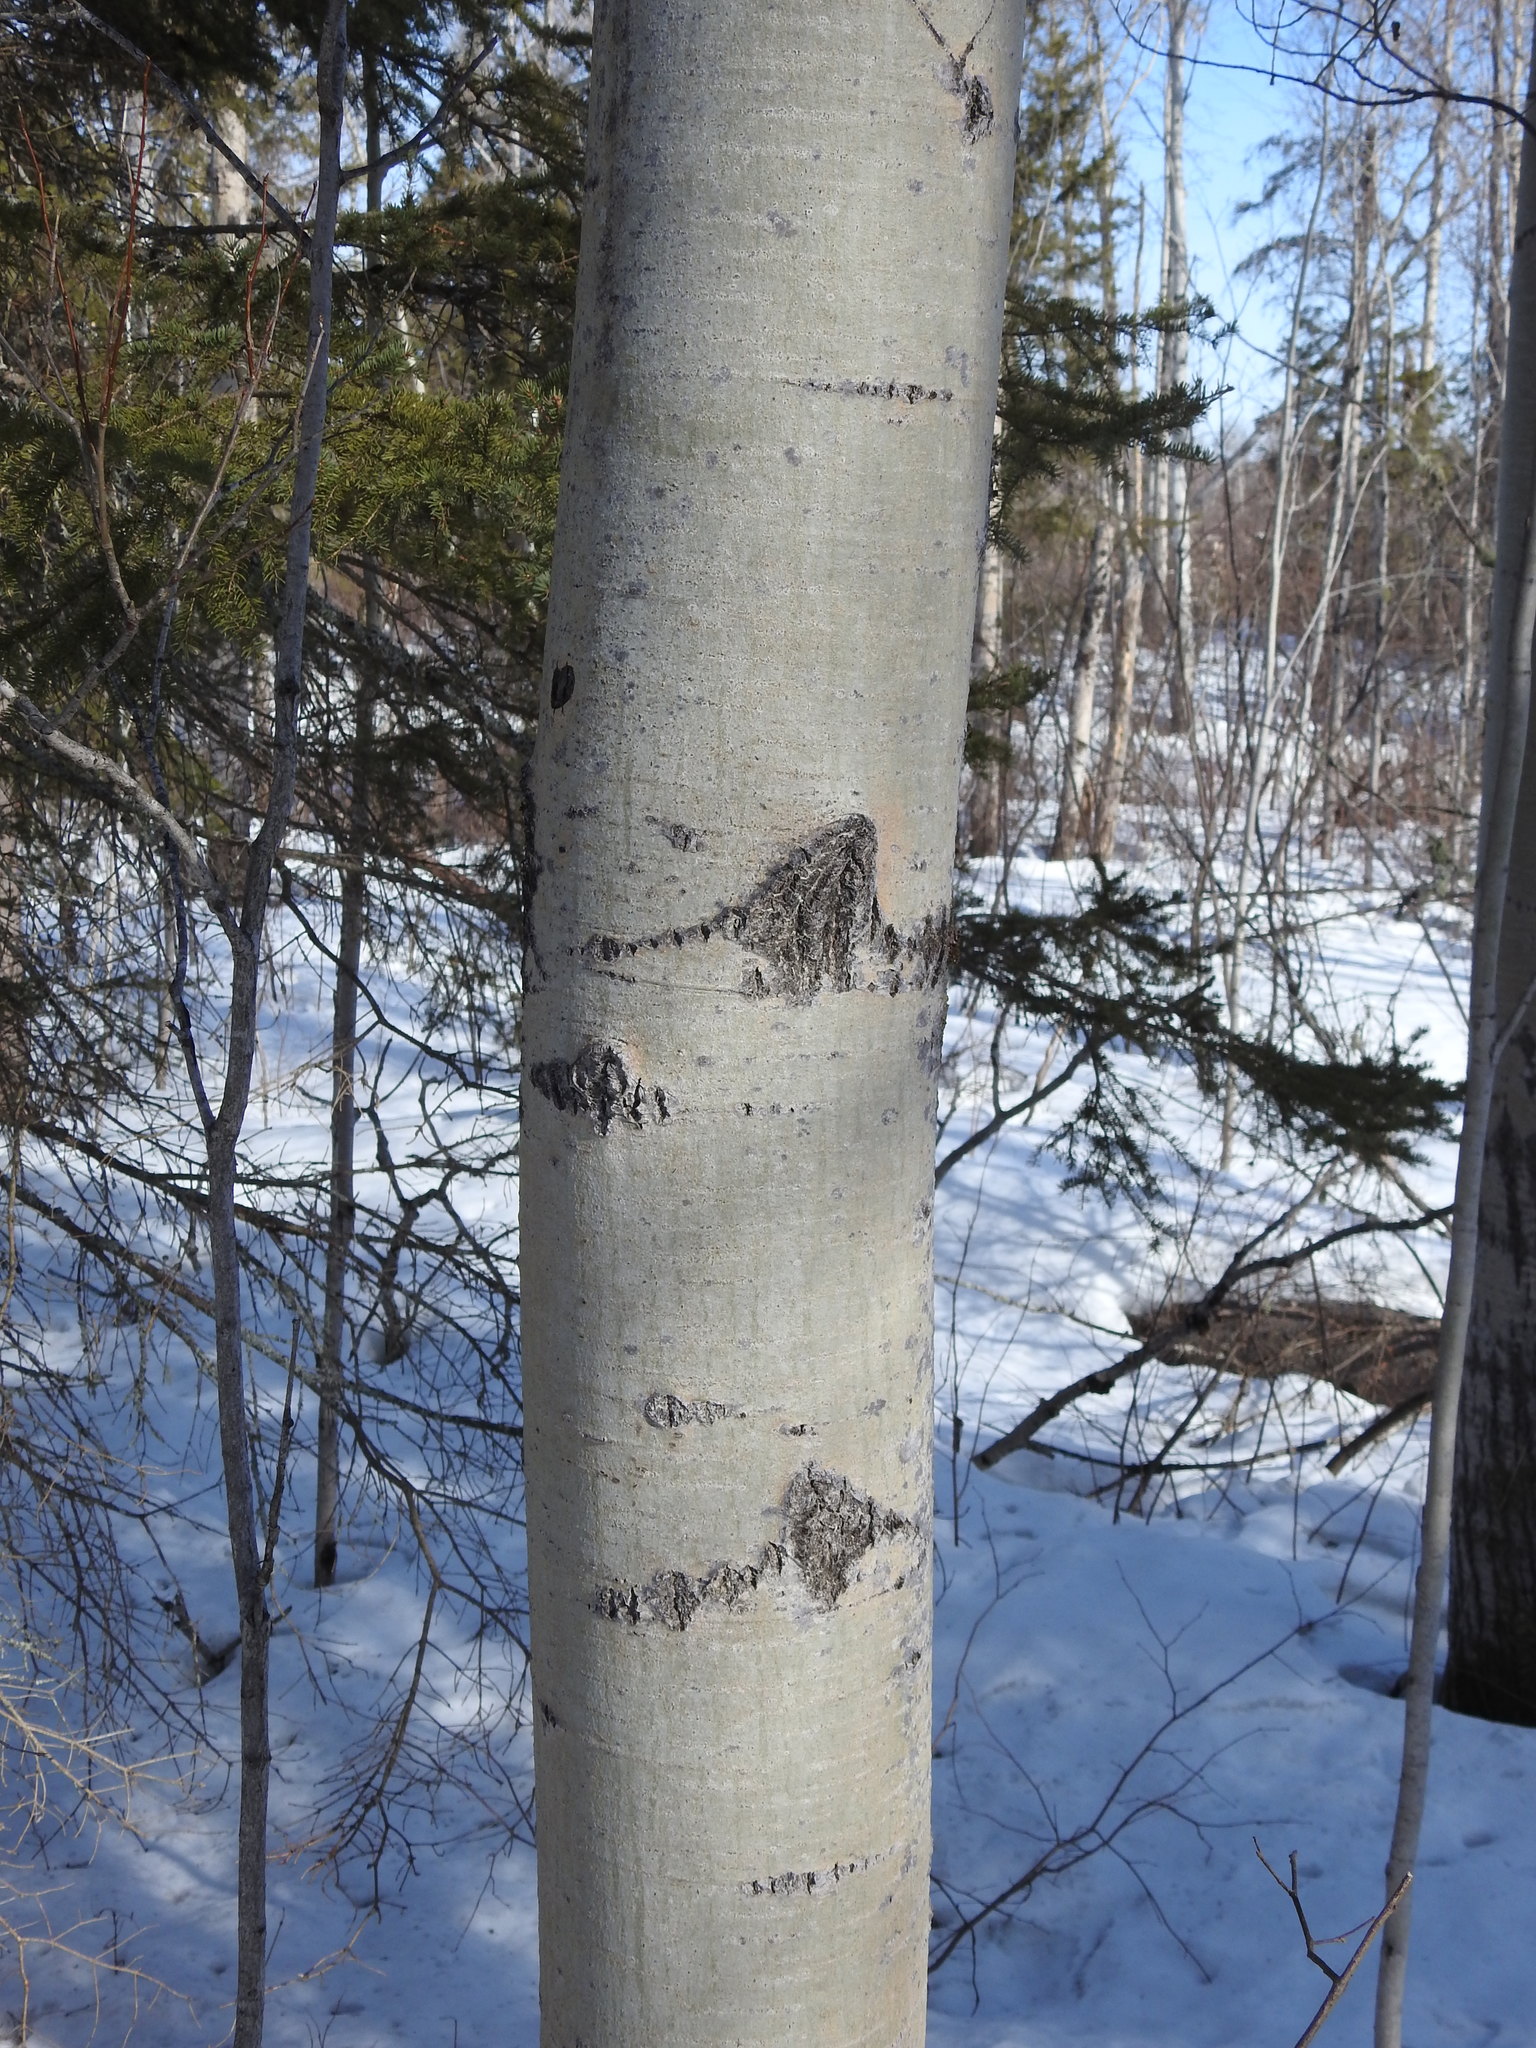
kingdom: Plantae
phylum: Tracheophyta
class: Magnoliopsida
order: Malpighiales
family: Salicaceae
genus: Populus
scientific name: Populus tremuloides
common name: Quaking aspen
